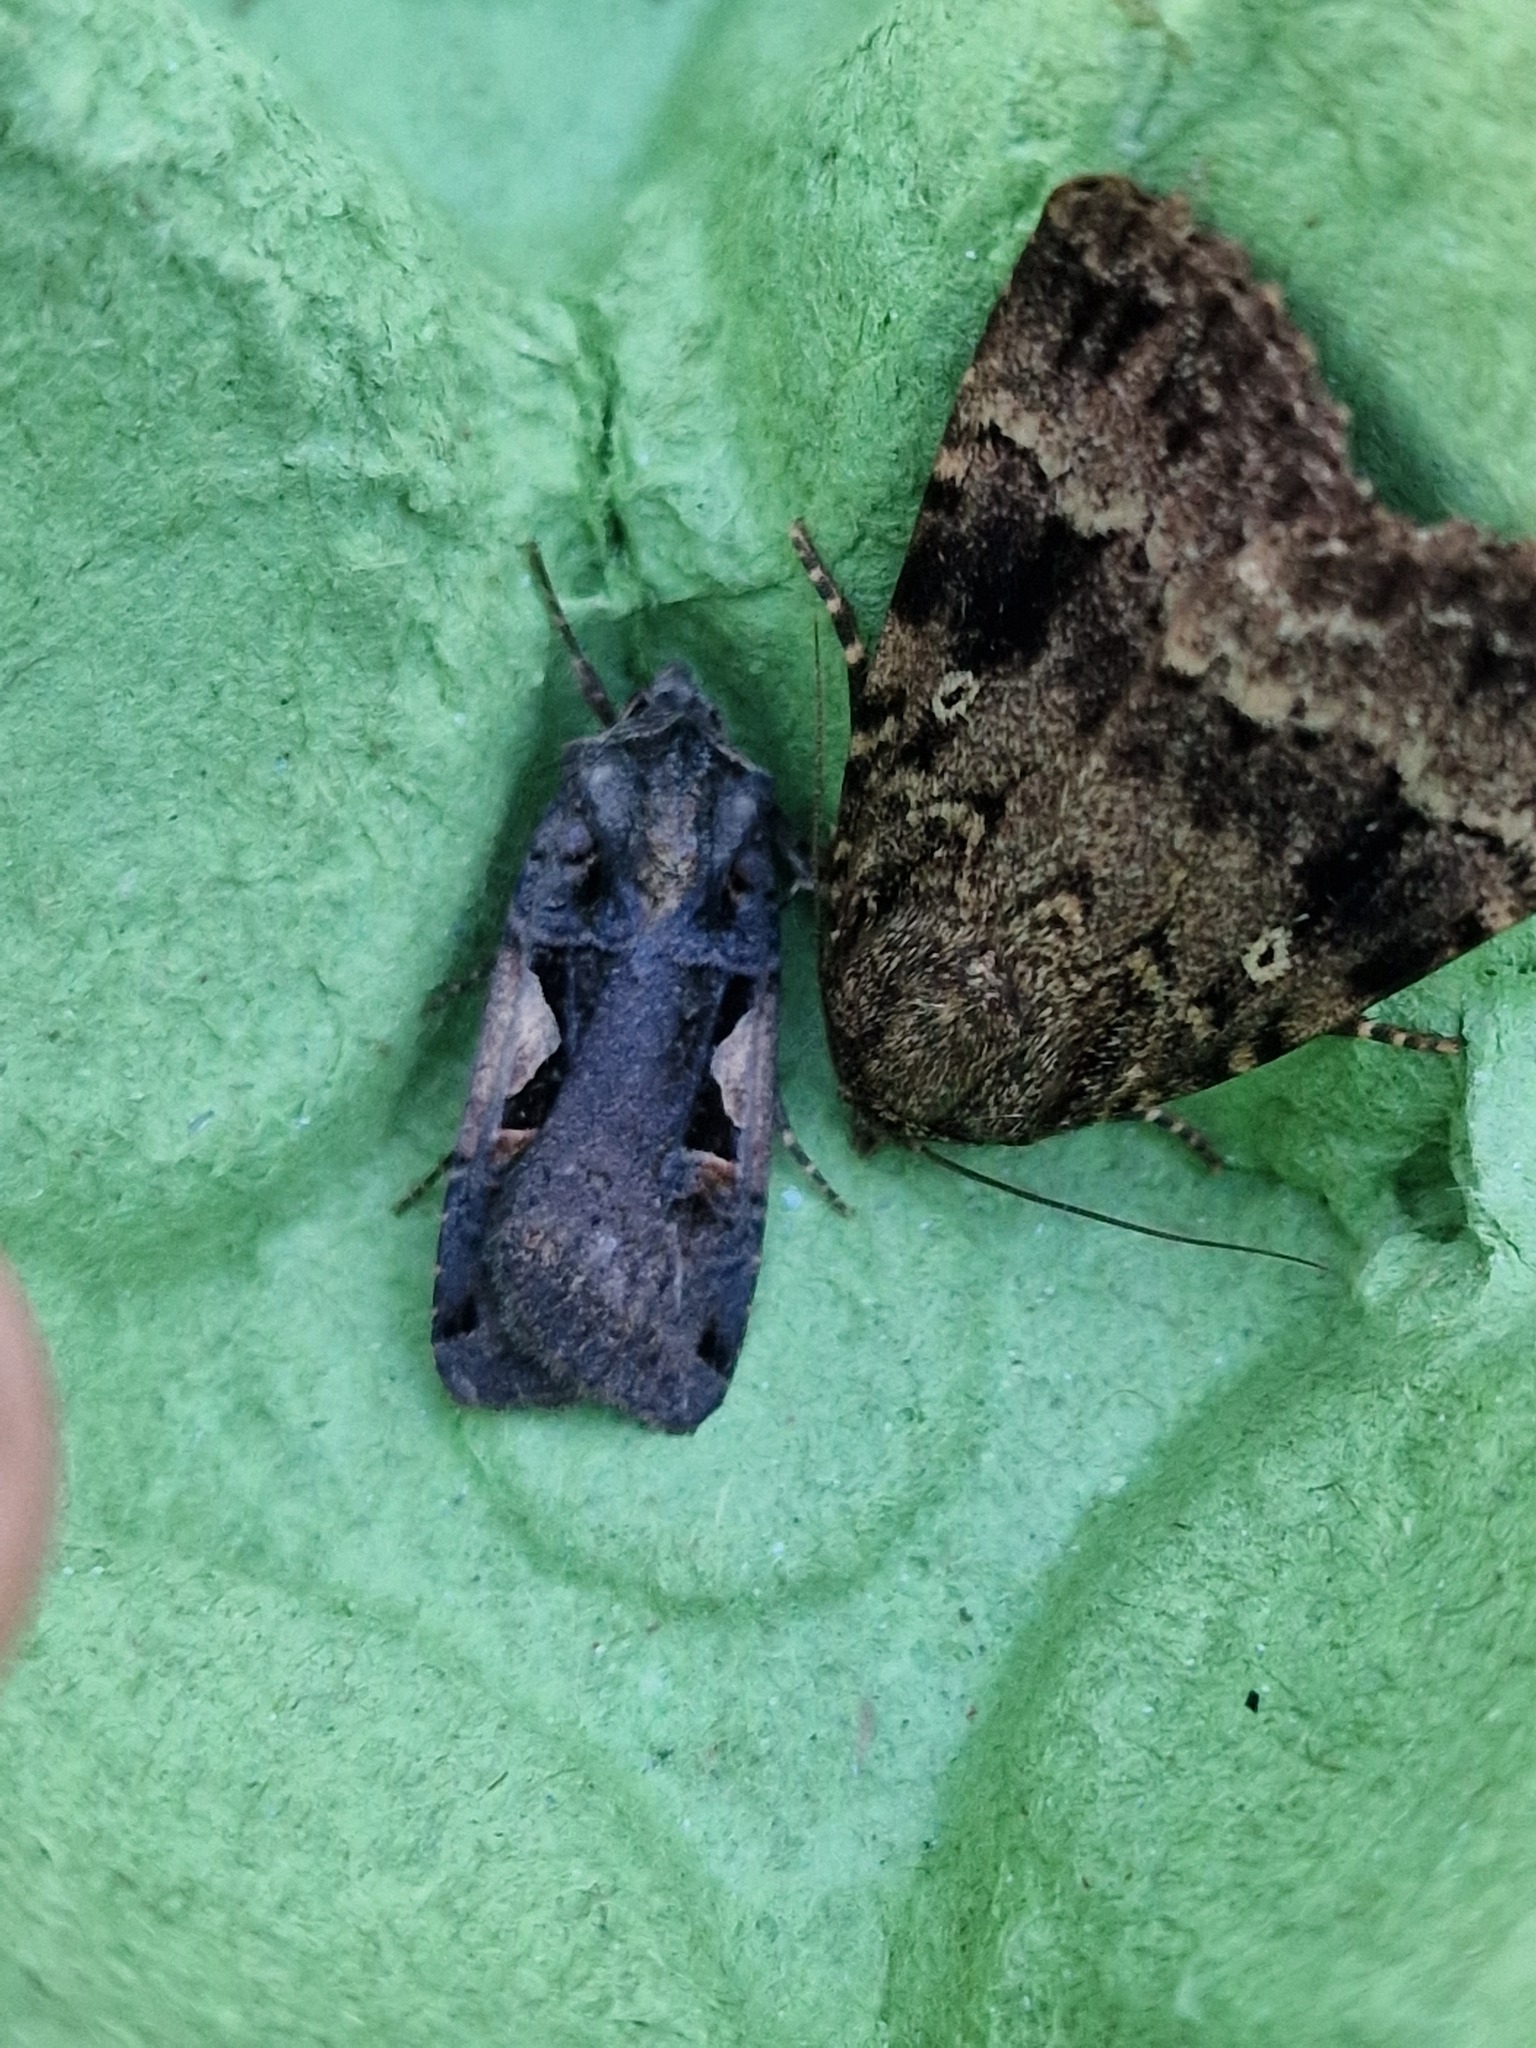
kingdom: Animalia
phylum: Arthropoda
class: Insecta
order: Lepidoptera
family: Noctuidae
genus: Xestia
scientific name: Xestia c-nigrum
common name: Setaceous hebrew character
